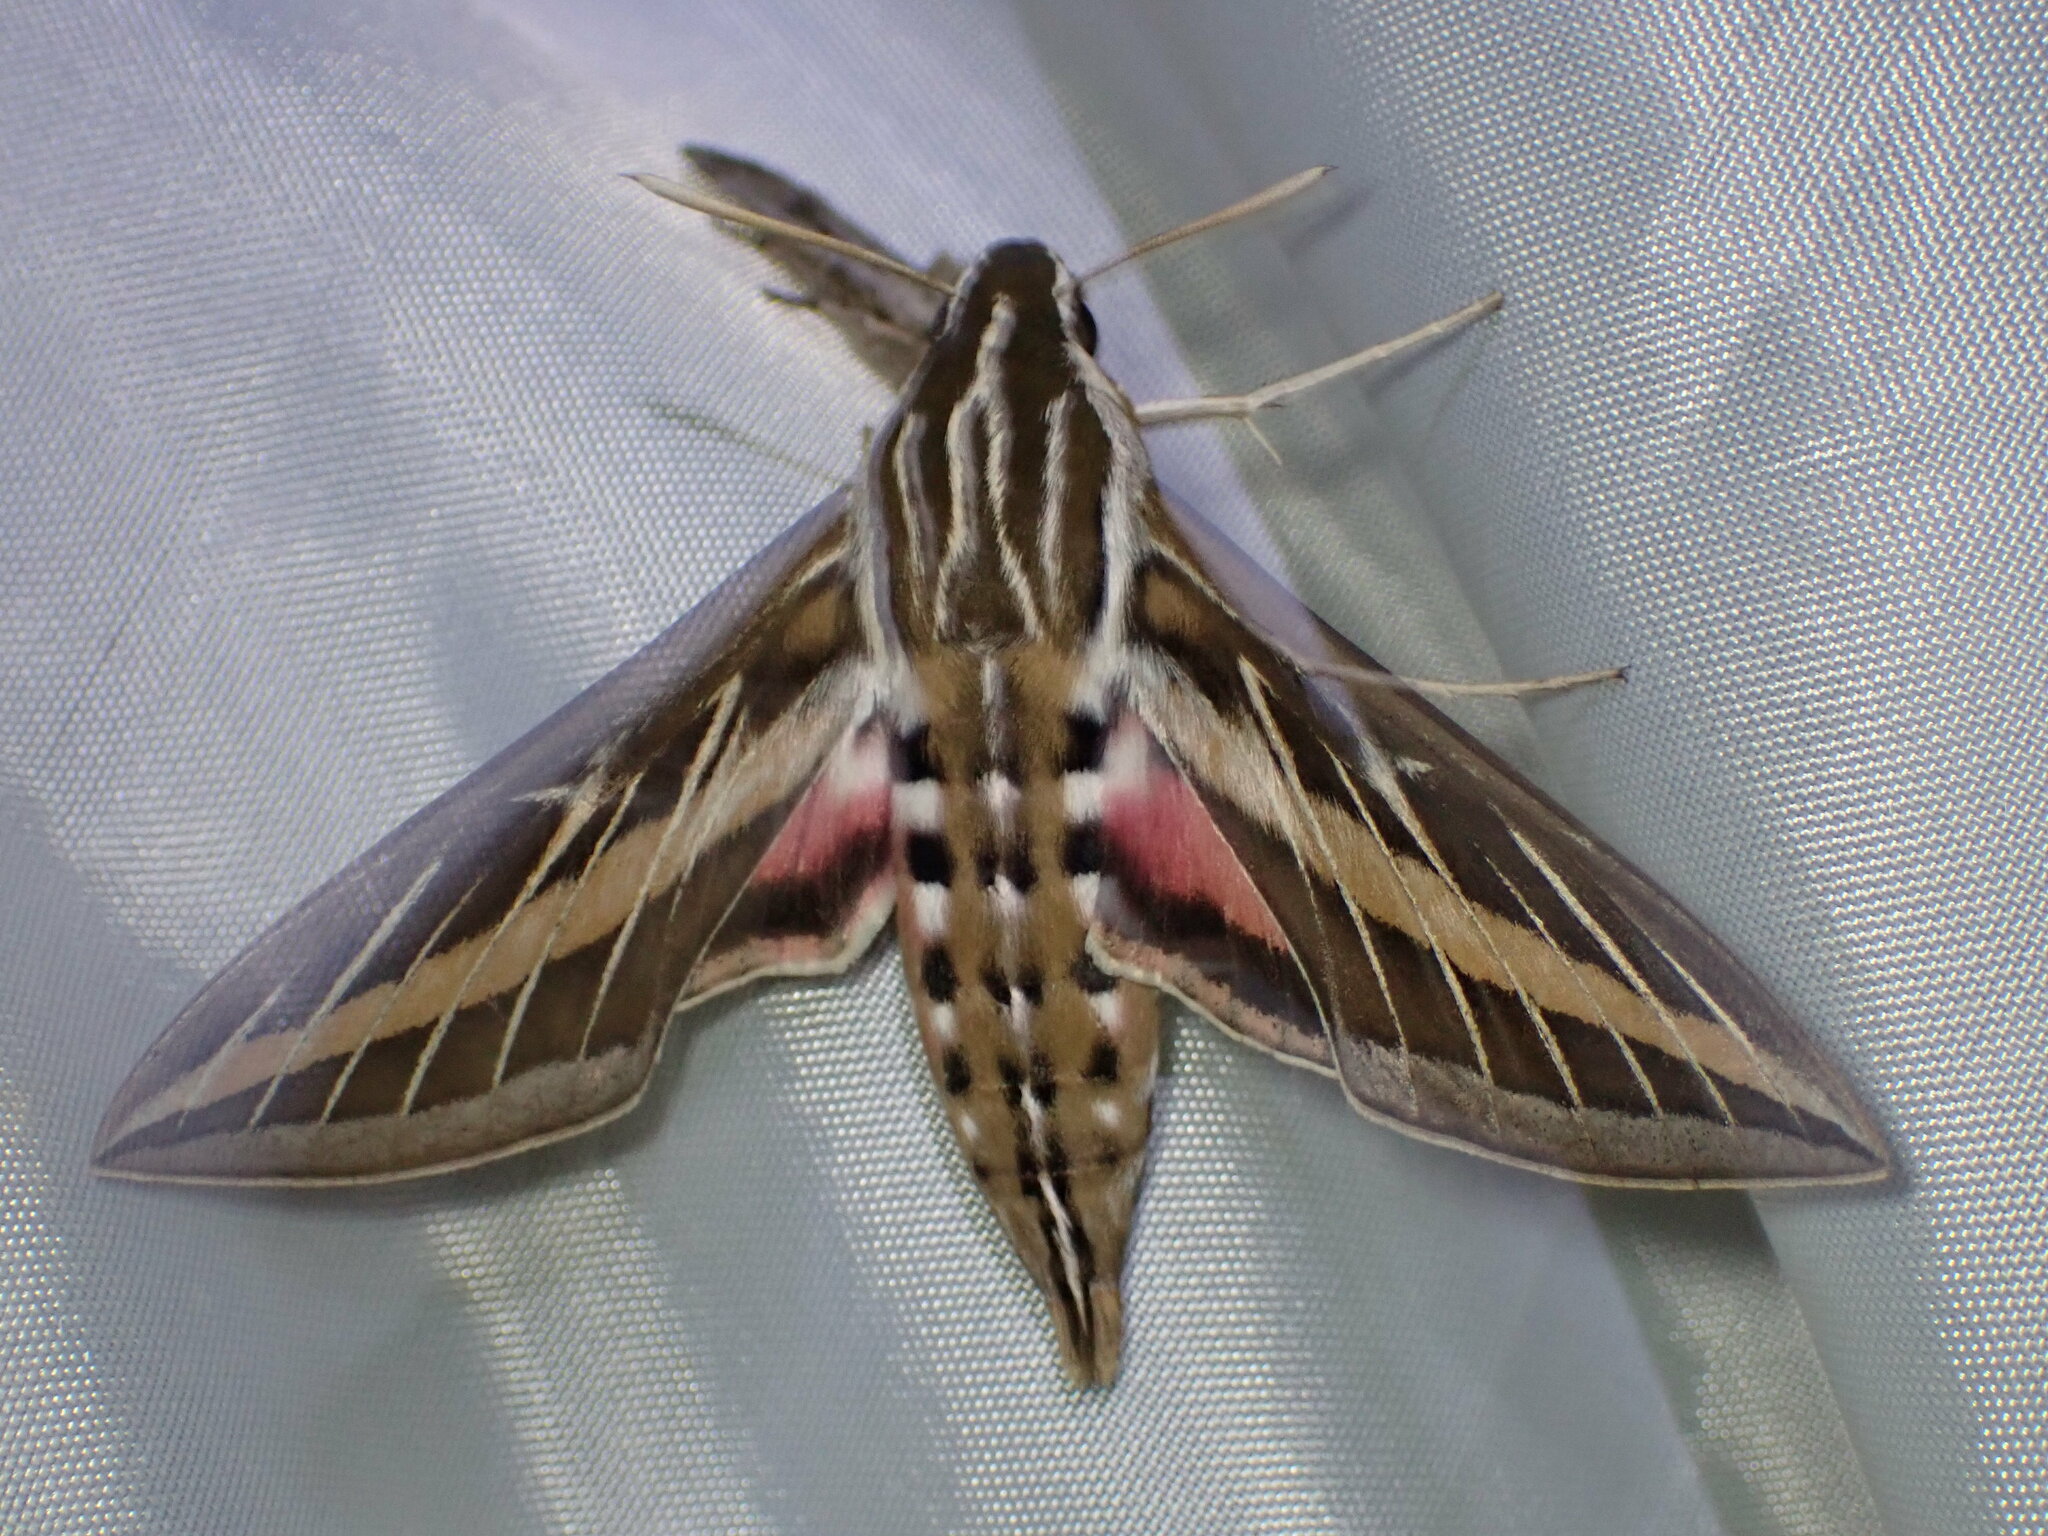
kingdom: Animalia
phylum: Arthropoda
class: Insecta
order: Lepidoptera
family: Sphingidae
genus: Hyles
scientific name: Hyles lineata
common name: White-lined sphinx
